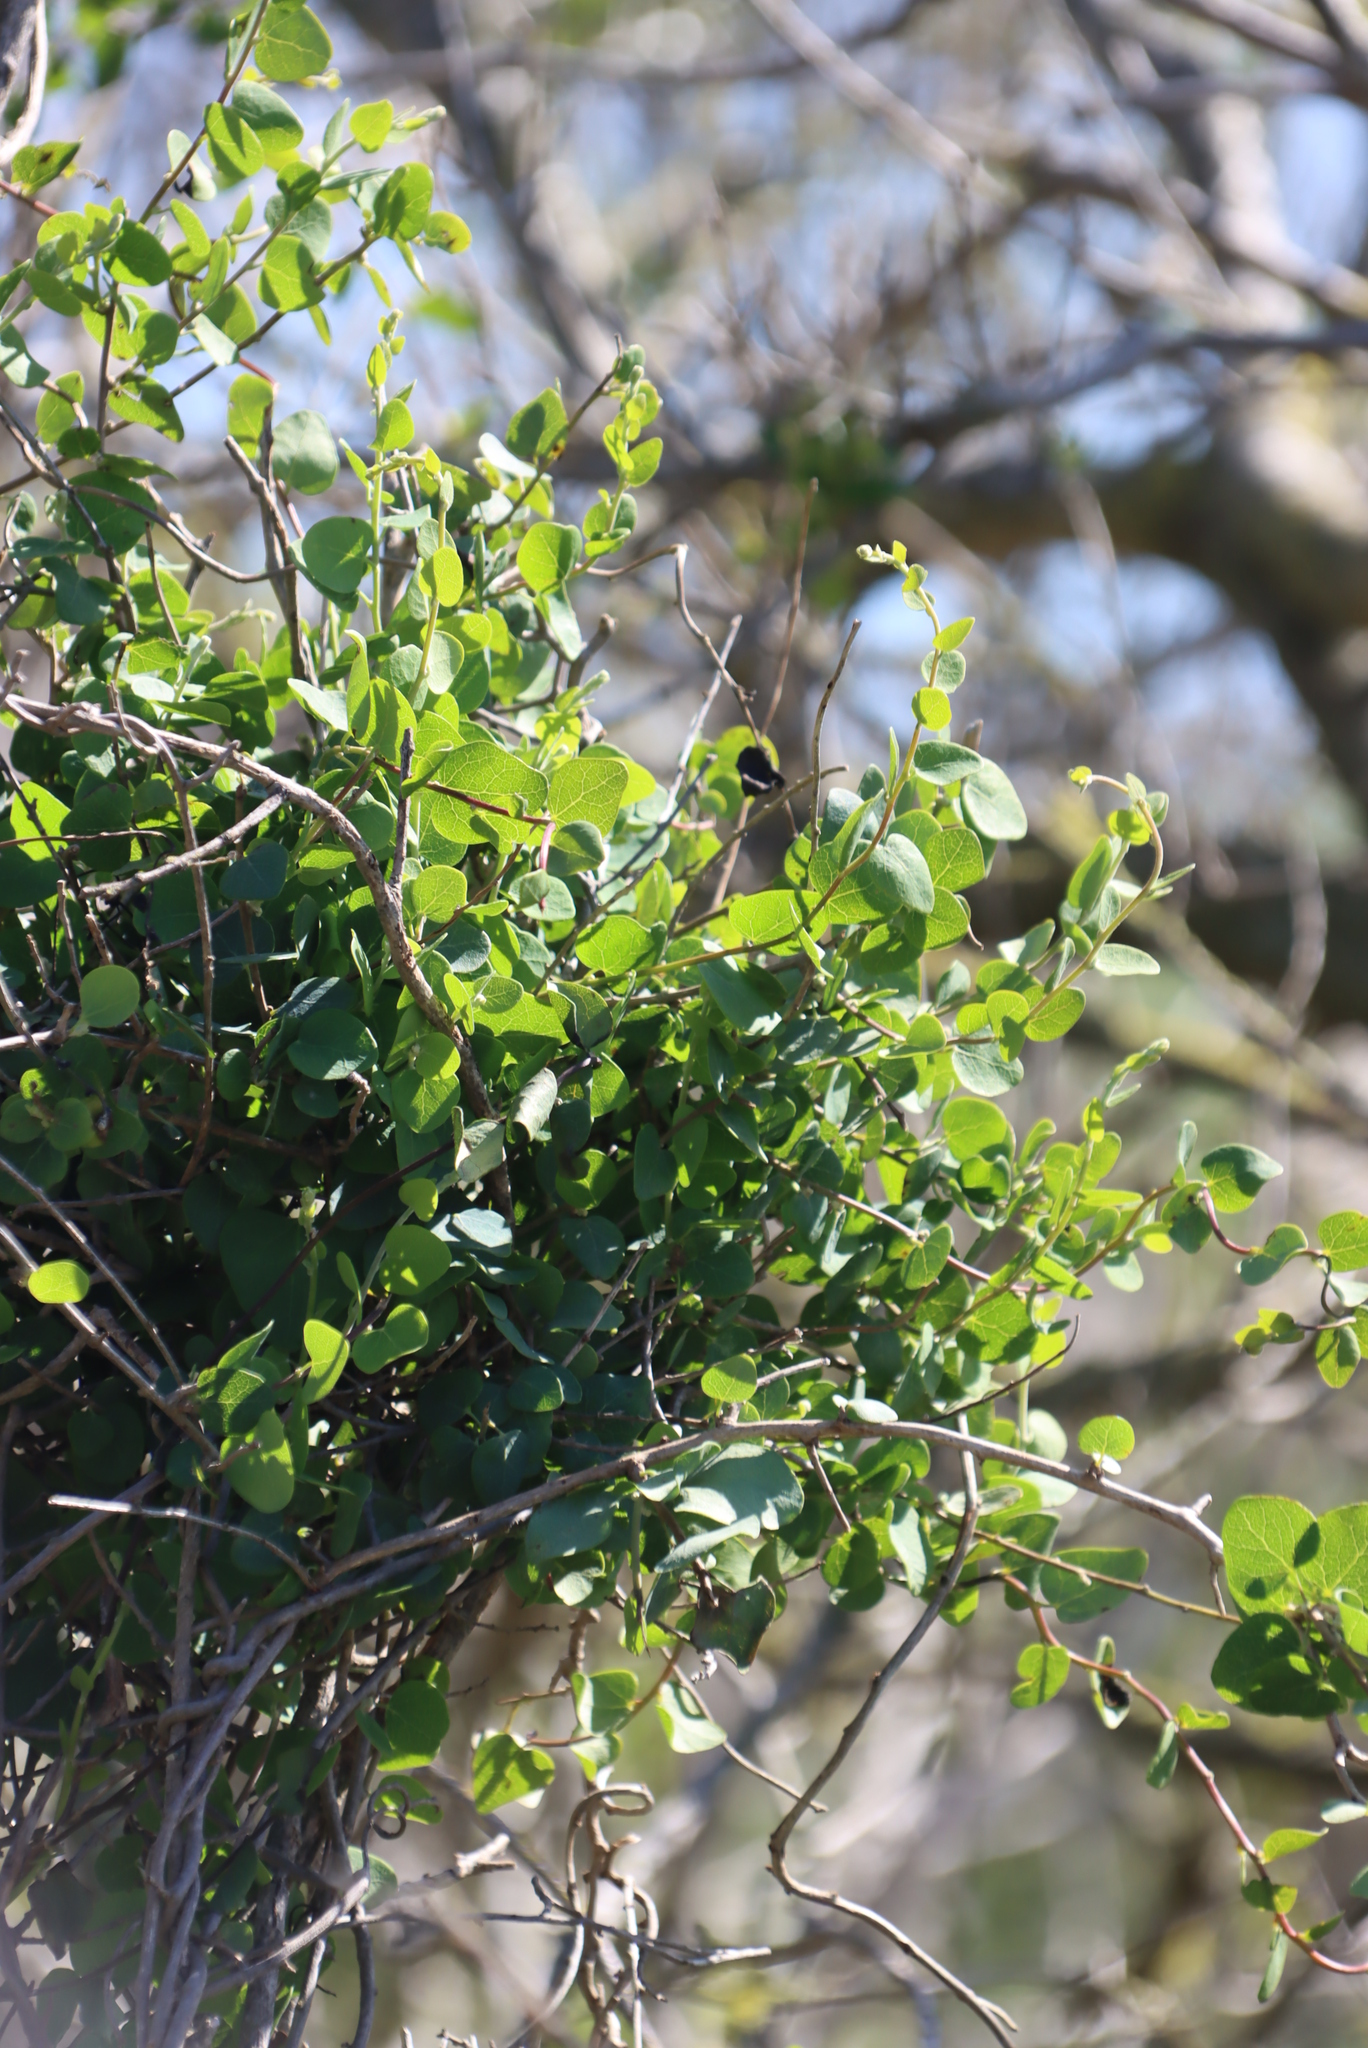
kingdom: Plantae
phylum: Tracheophyta
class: Magnoliopsida
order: Ranunculales
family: Menispermaceae
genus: Cissampelos
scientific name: Cissampelos capensis
